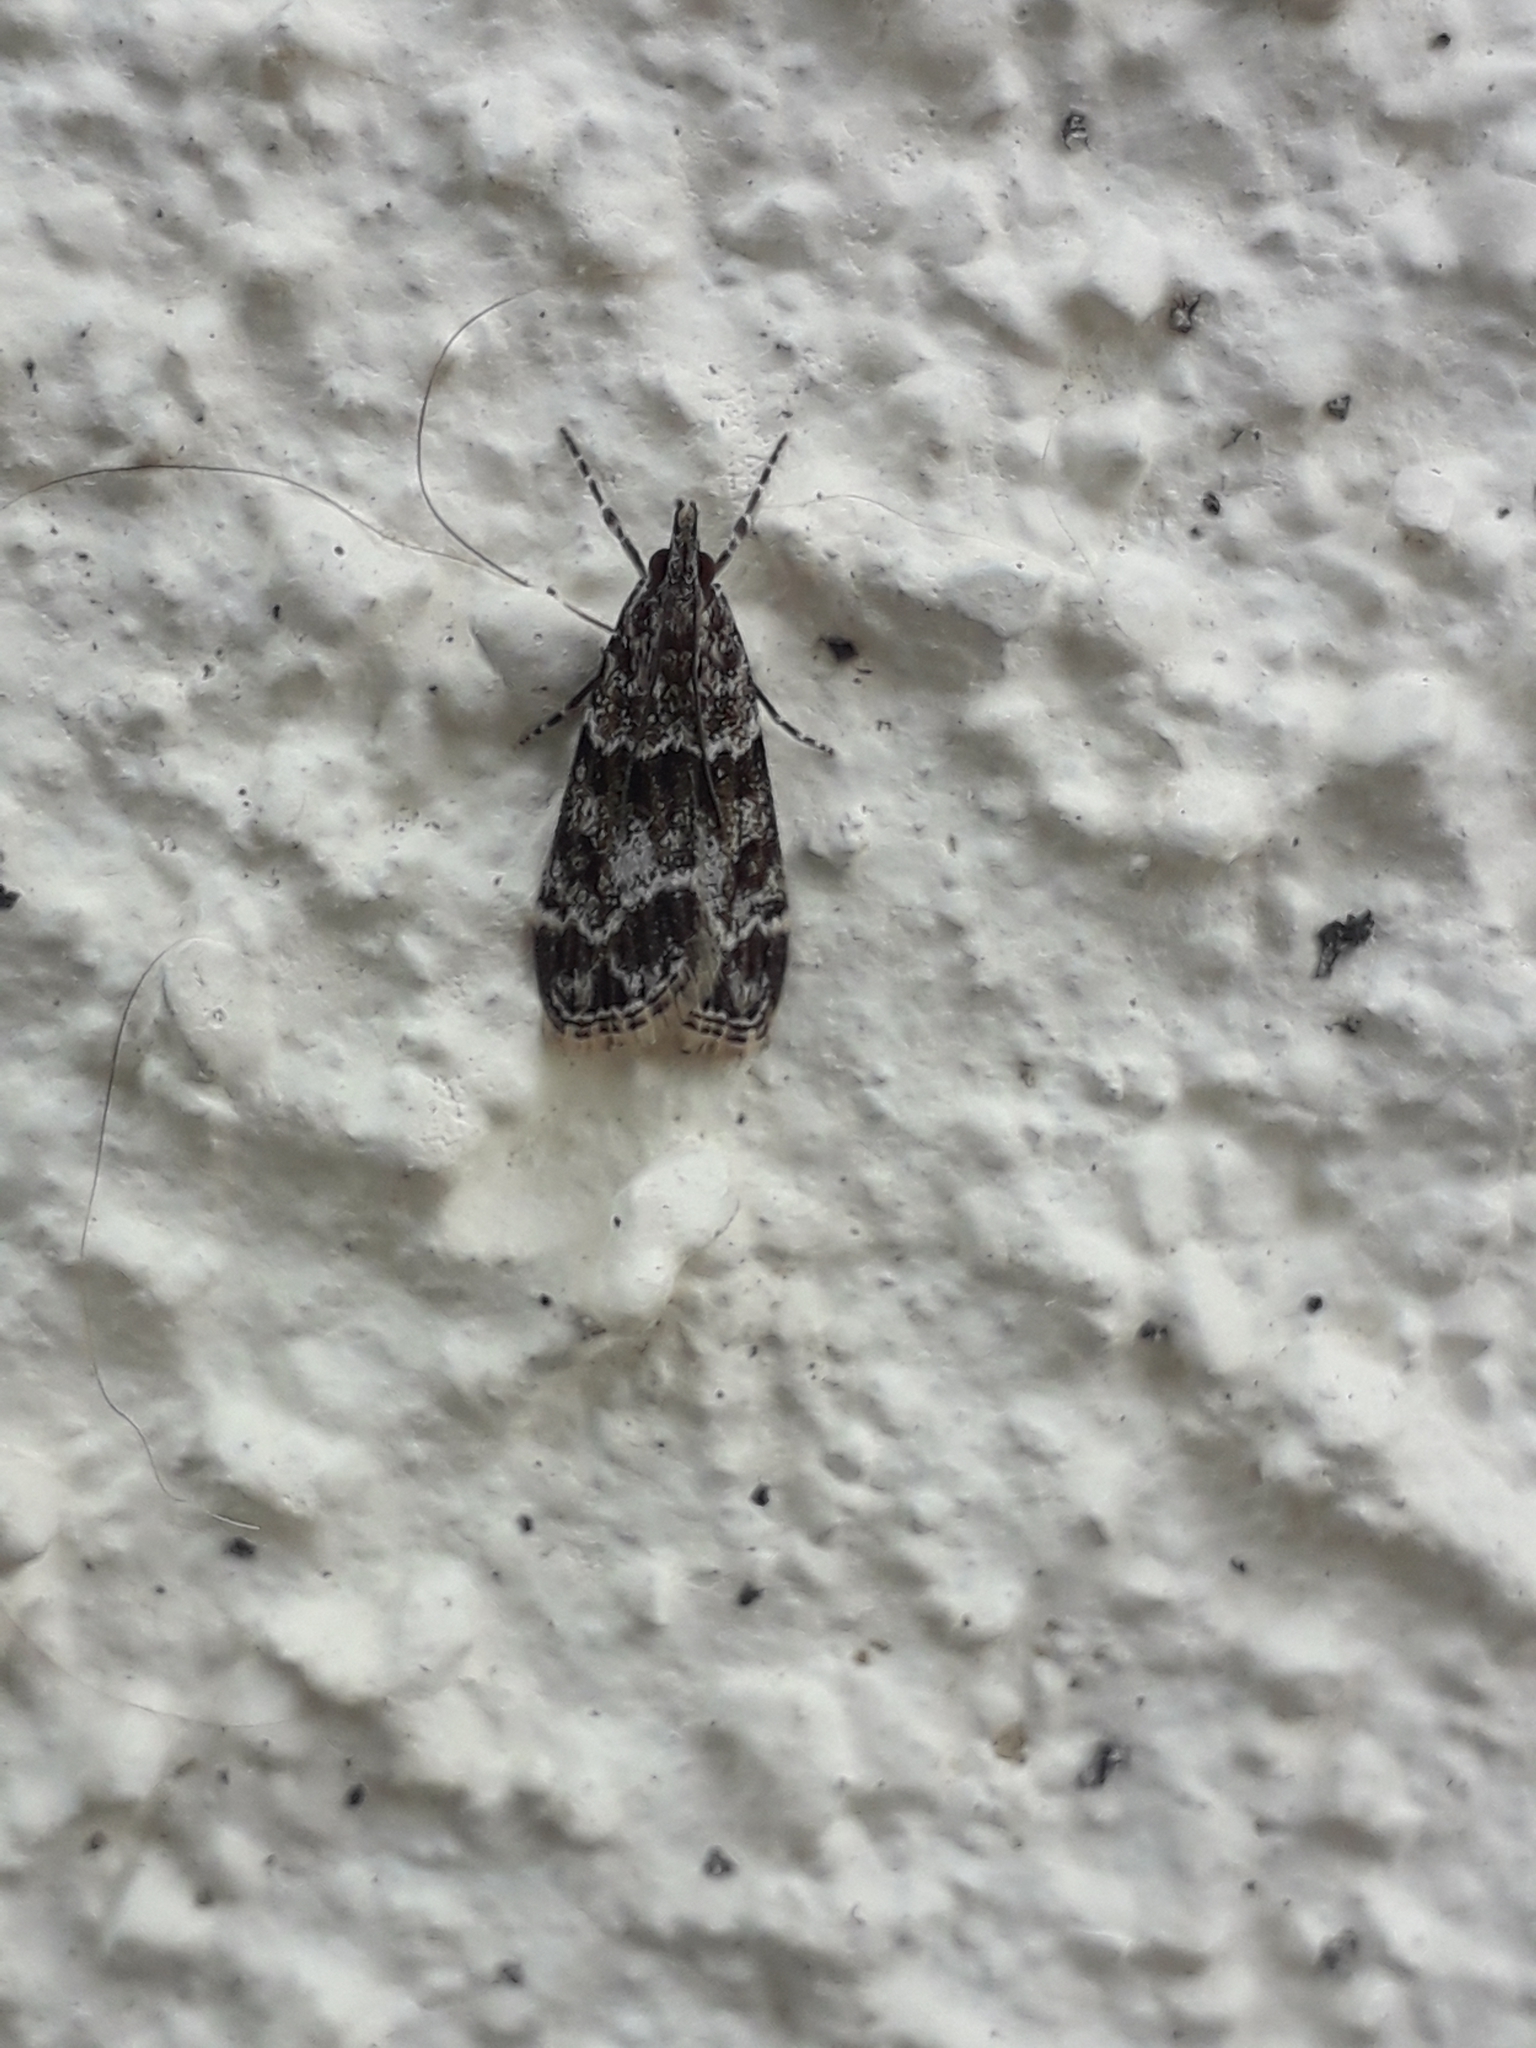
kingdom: Animalia
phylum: Arthropoda
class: Insecta
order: Lepidoptera
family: Crambidae
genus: Eudonia
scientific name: Eudonia mercurella
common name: Small grey
